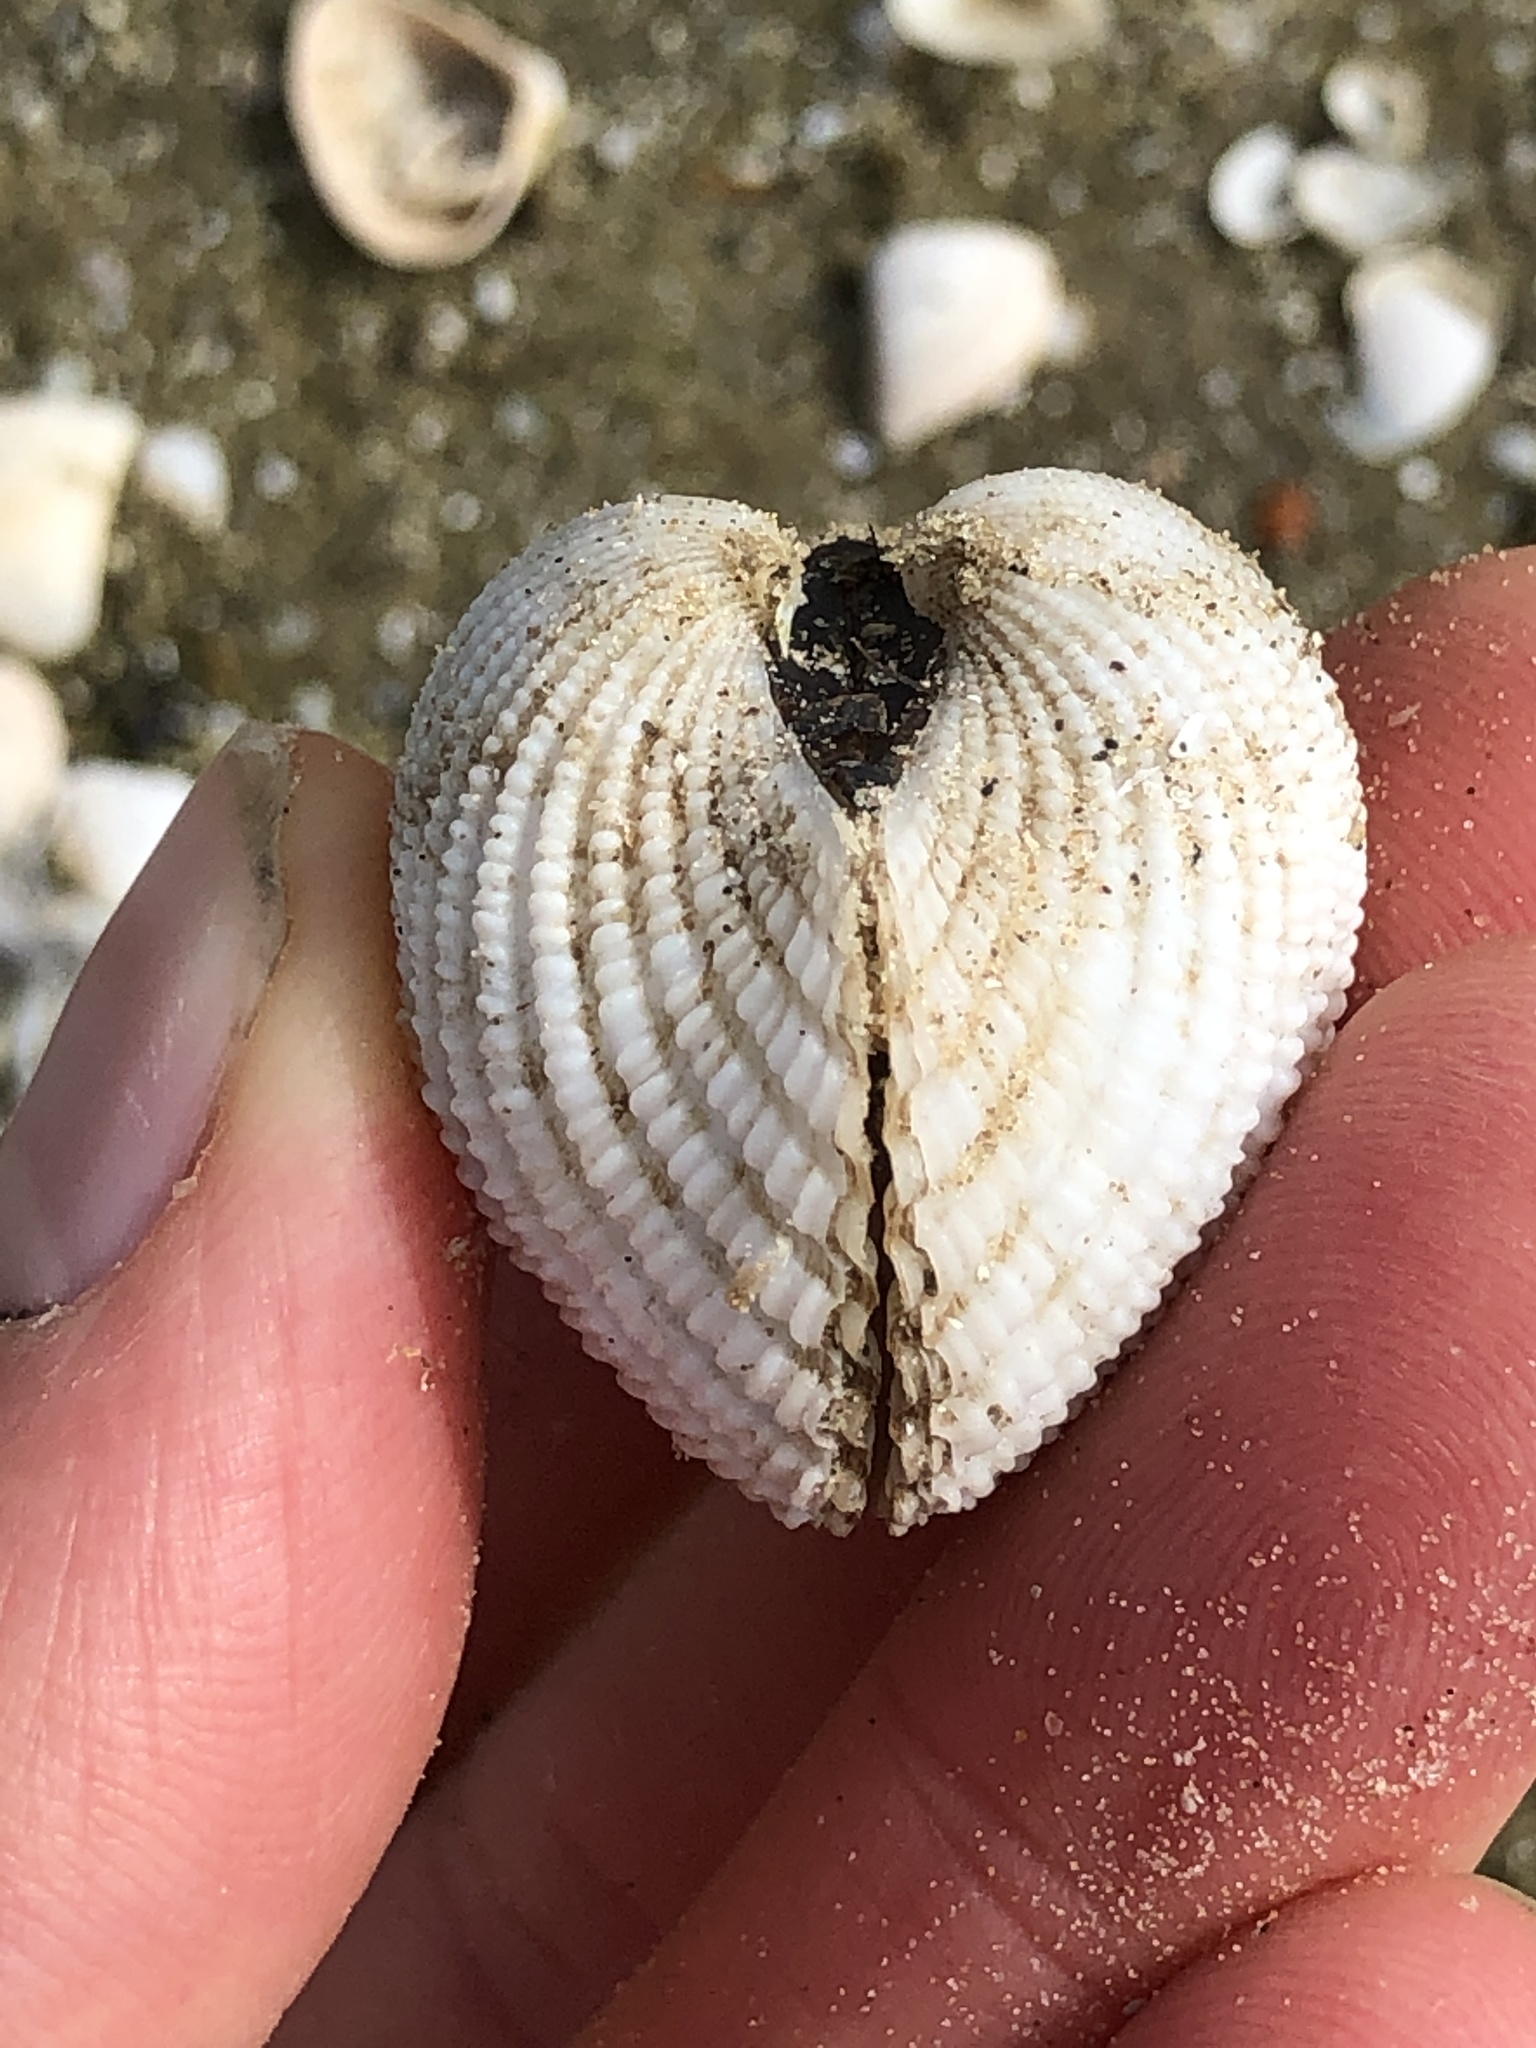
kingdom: Animalia
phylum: Mollusca
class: Bivalvia
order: Arcida
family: Arcidae
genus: Anadara
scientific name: Anadara brasiliana
